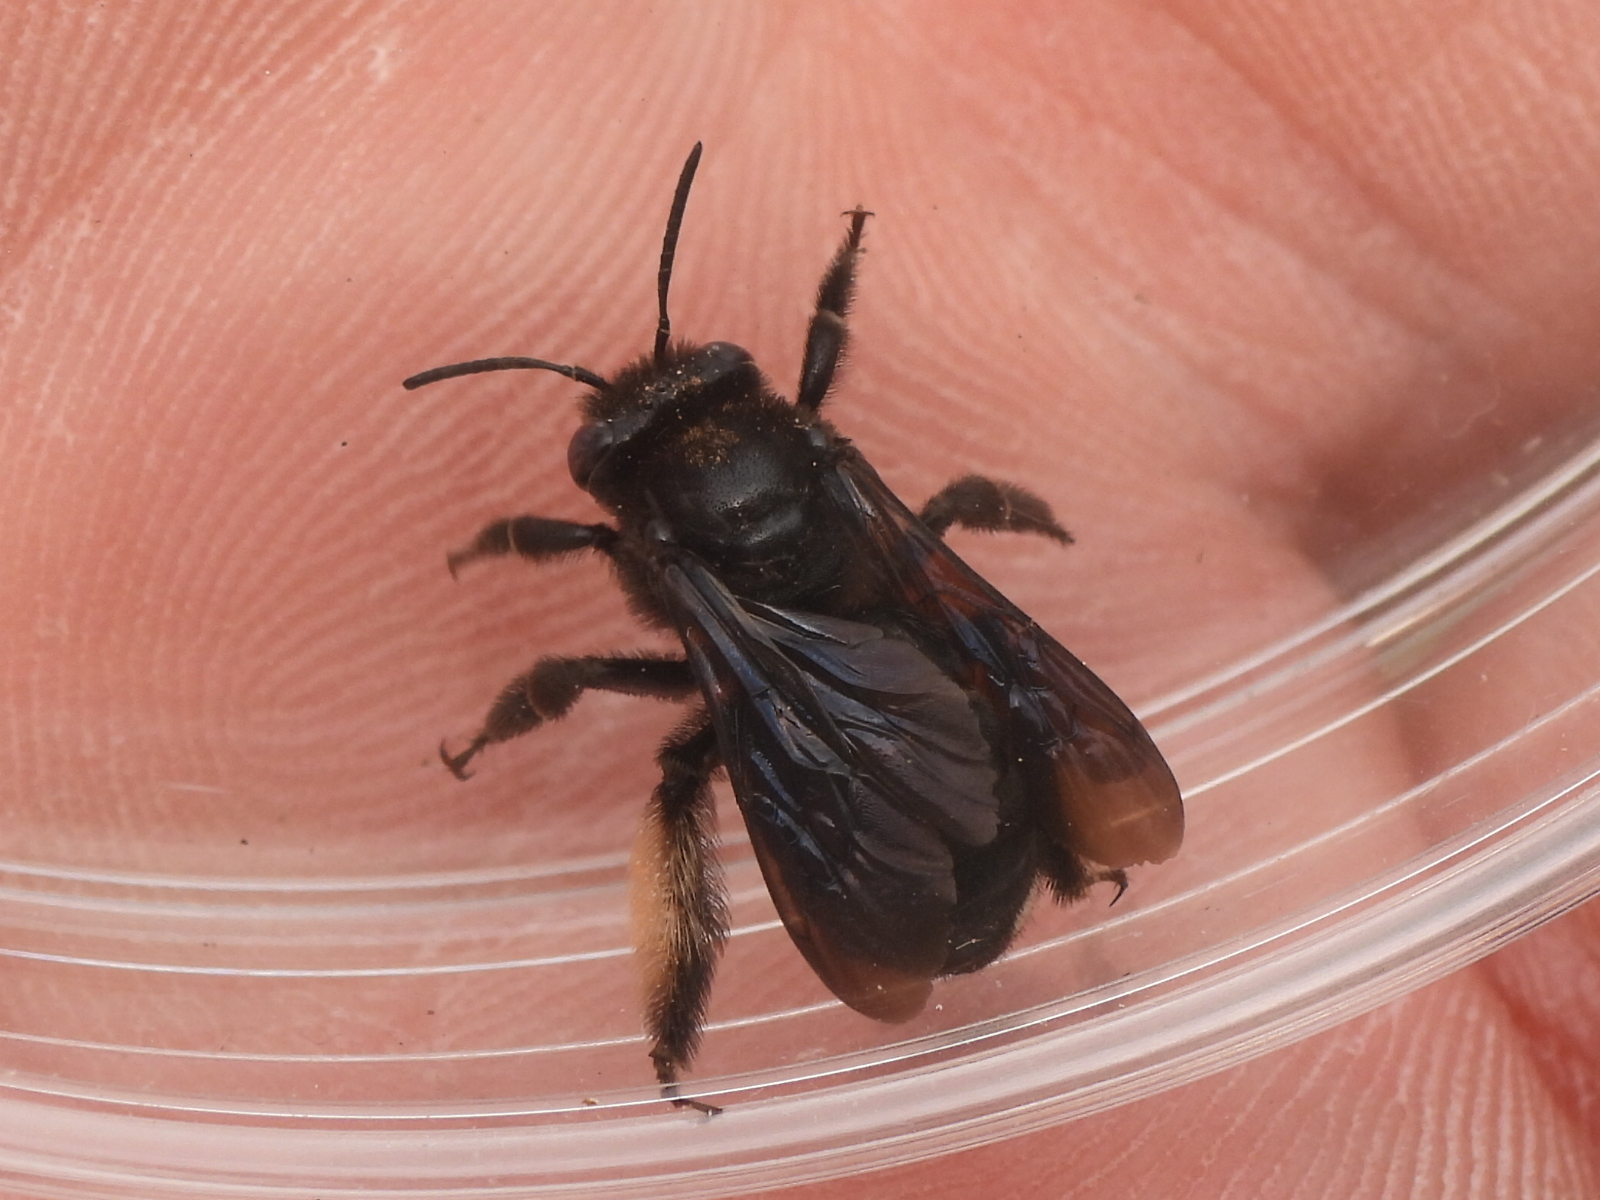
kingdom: Animalia
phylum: Arthropoda
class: Insecta
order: Hymenoptera
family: Apidae
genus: Melissodes
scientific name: Melissodes bimaculatus
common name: Two-spotted long-horned bee
